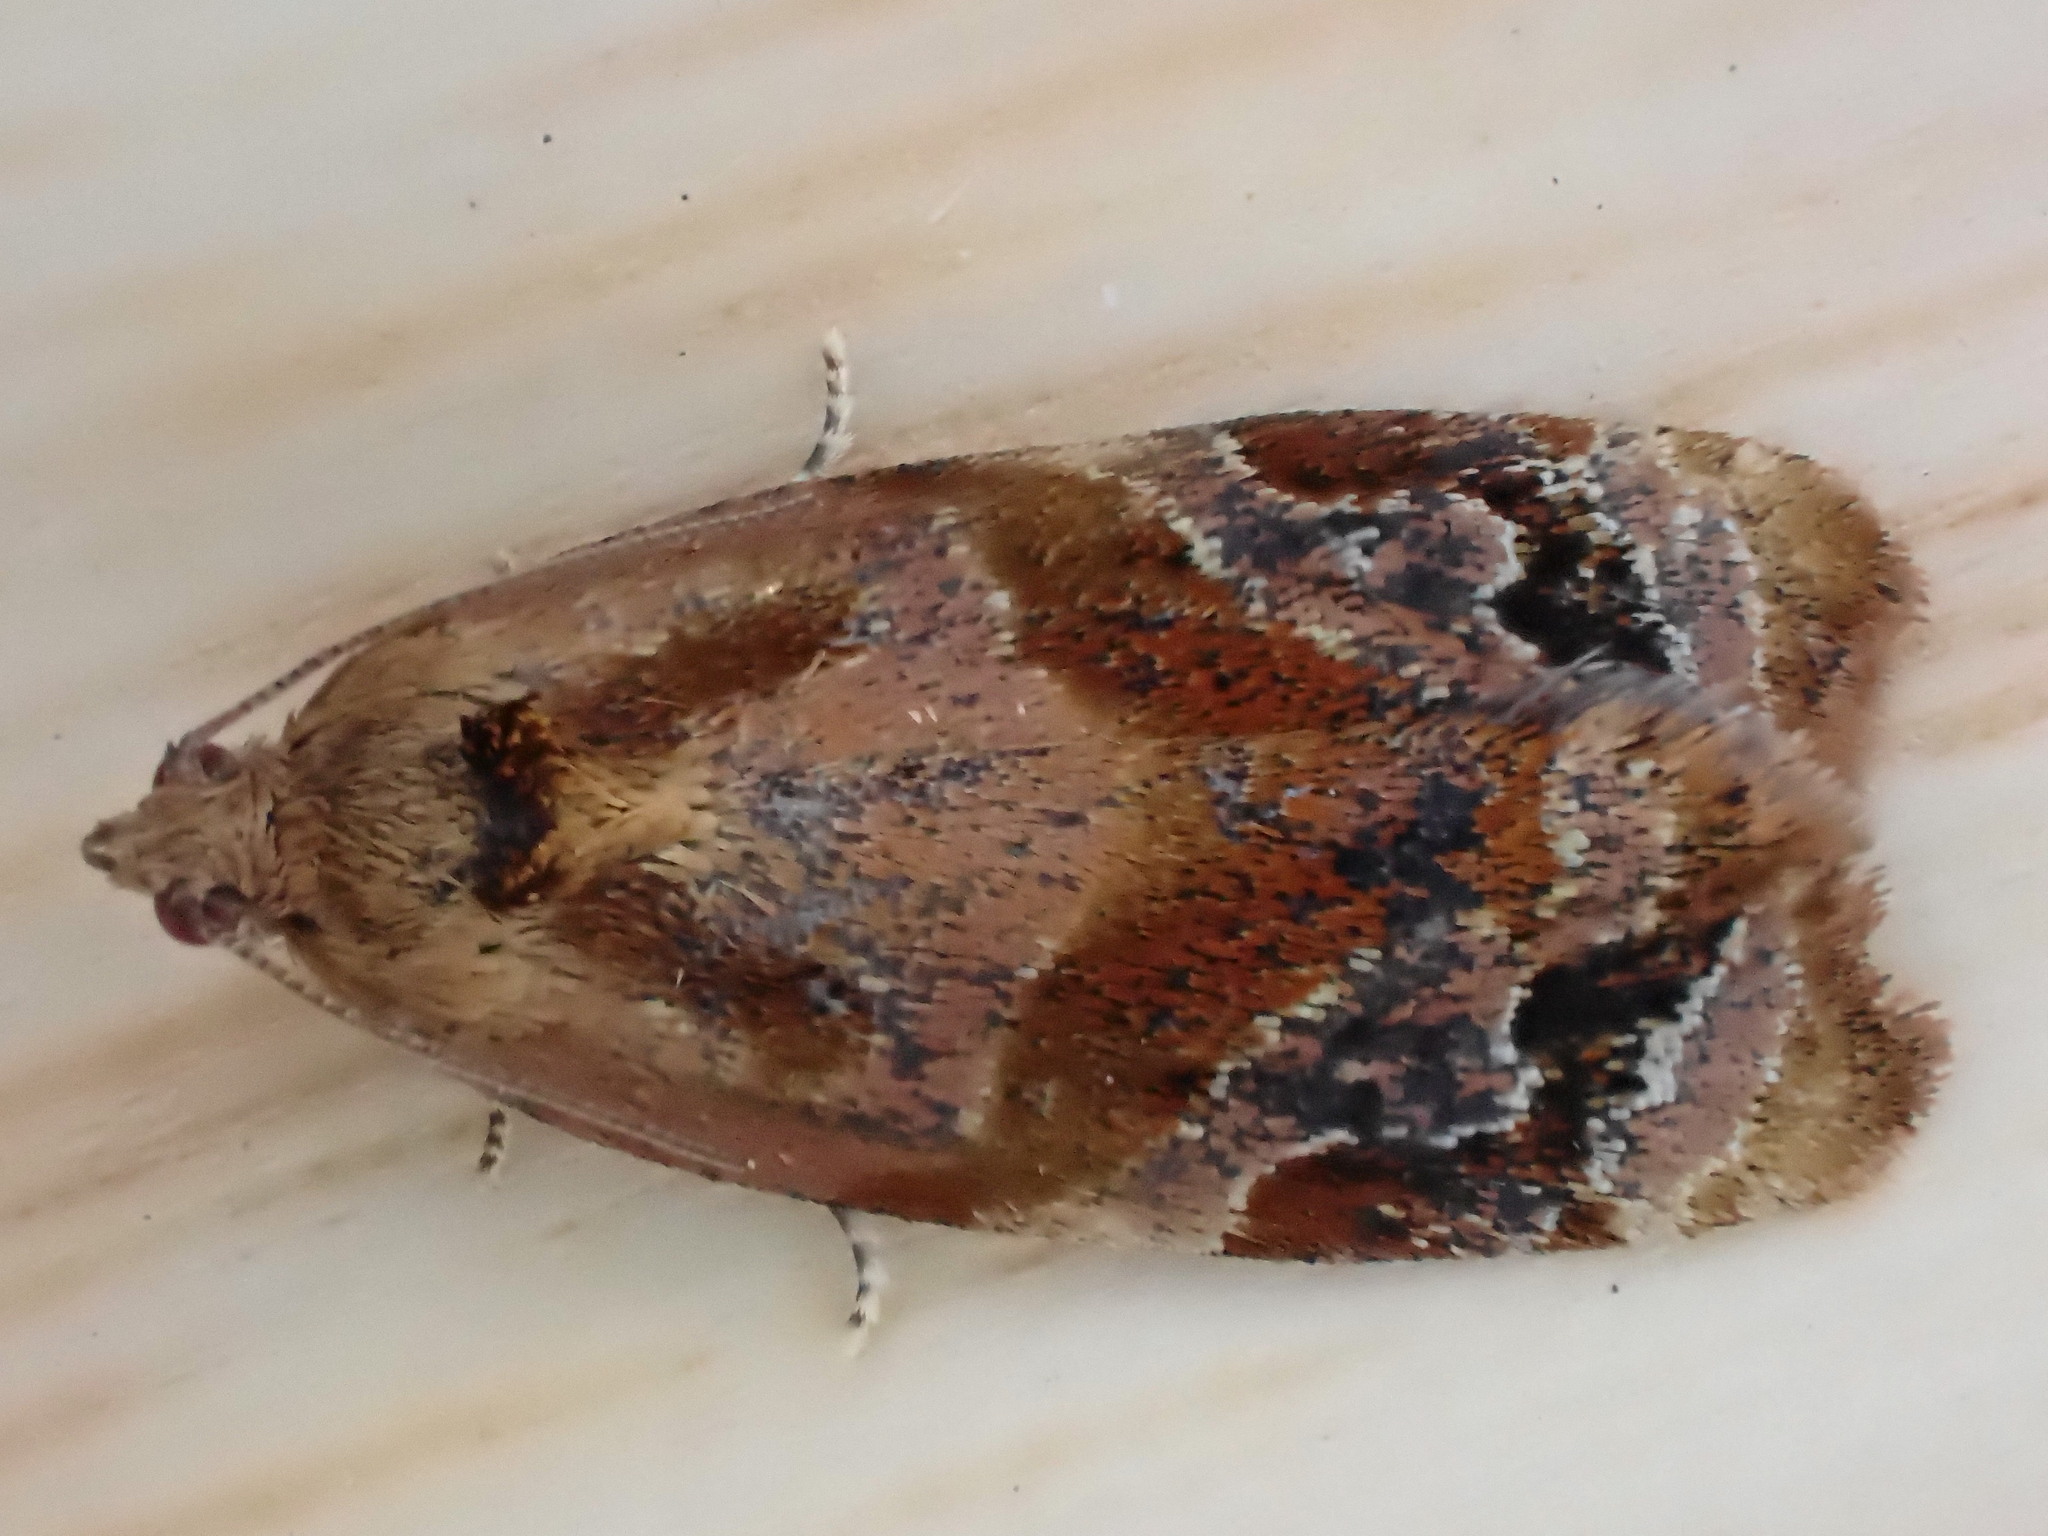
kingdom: Animalia
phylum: Arthropoda
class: Insecta
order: Lepidoptera
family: Tortricidae
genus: Ditula
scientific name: Ditula angustiorana
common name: Red-barred tortrix
